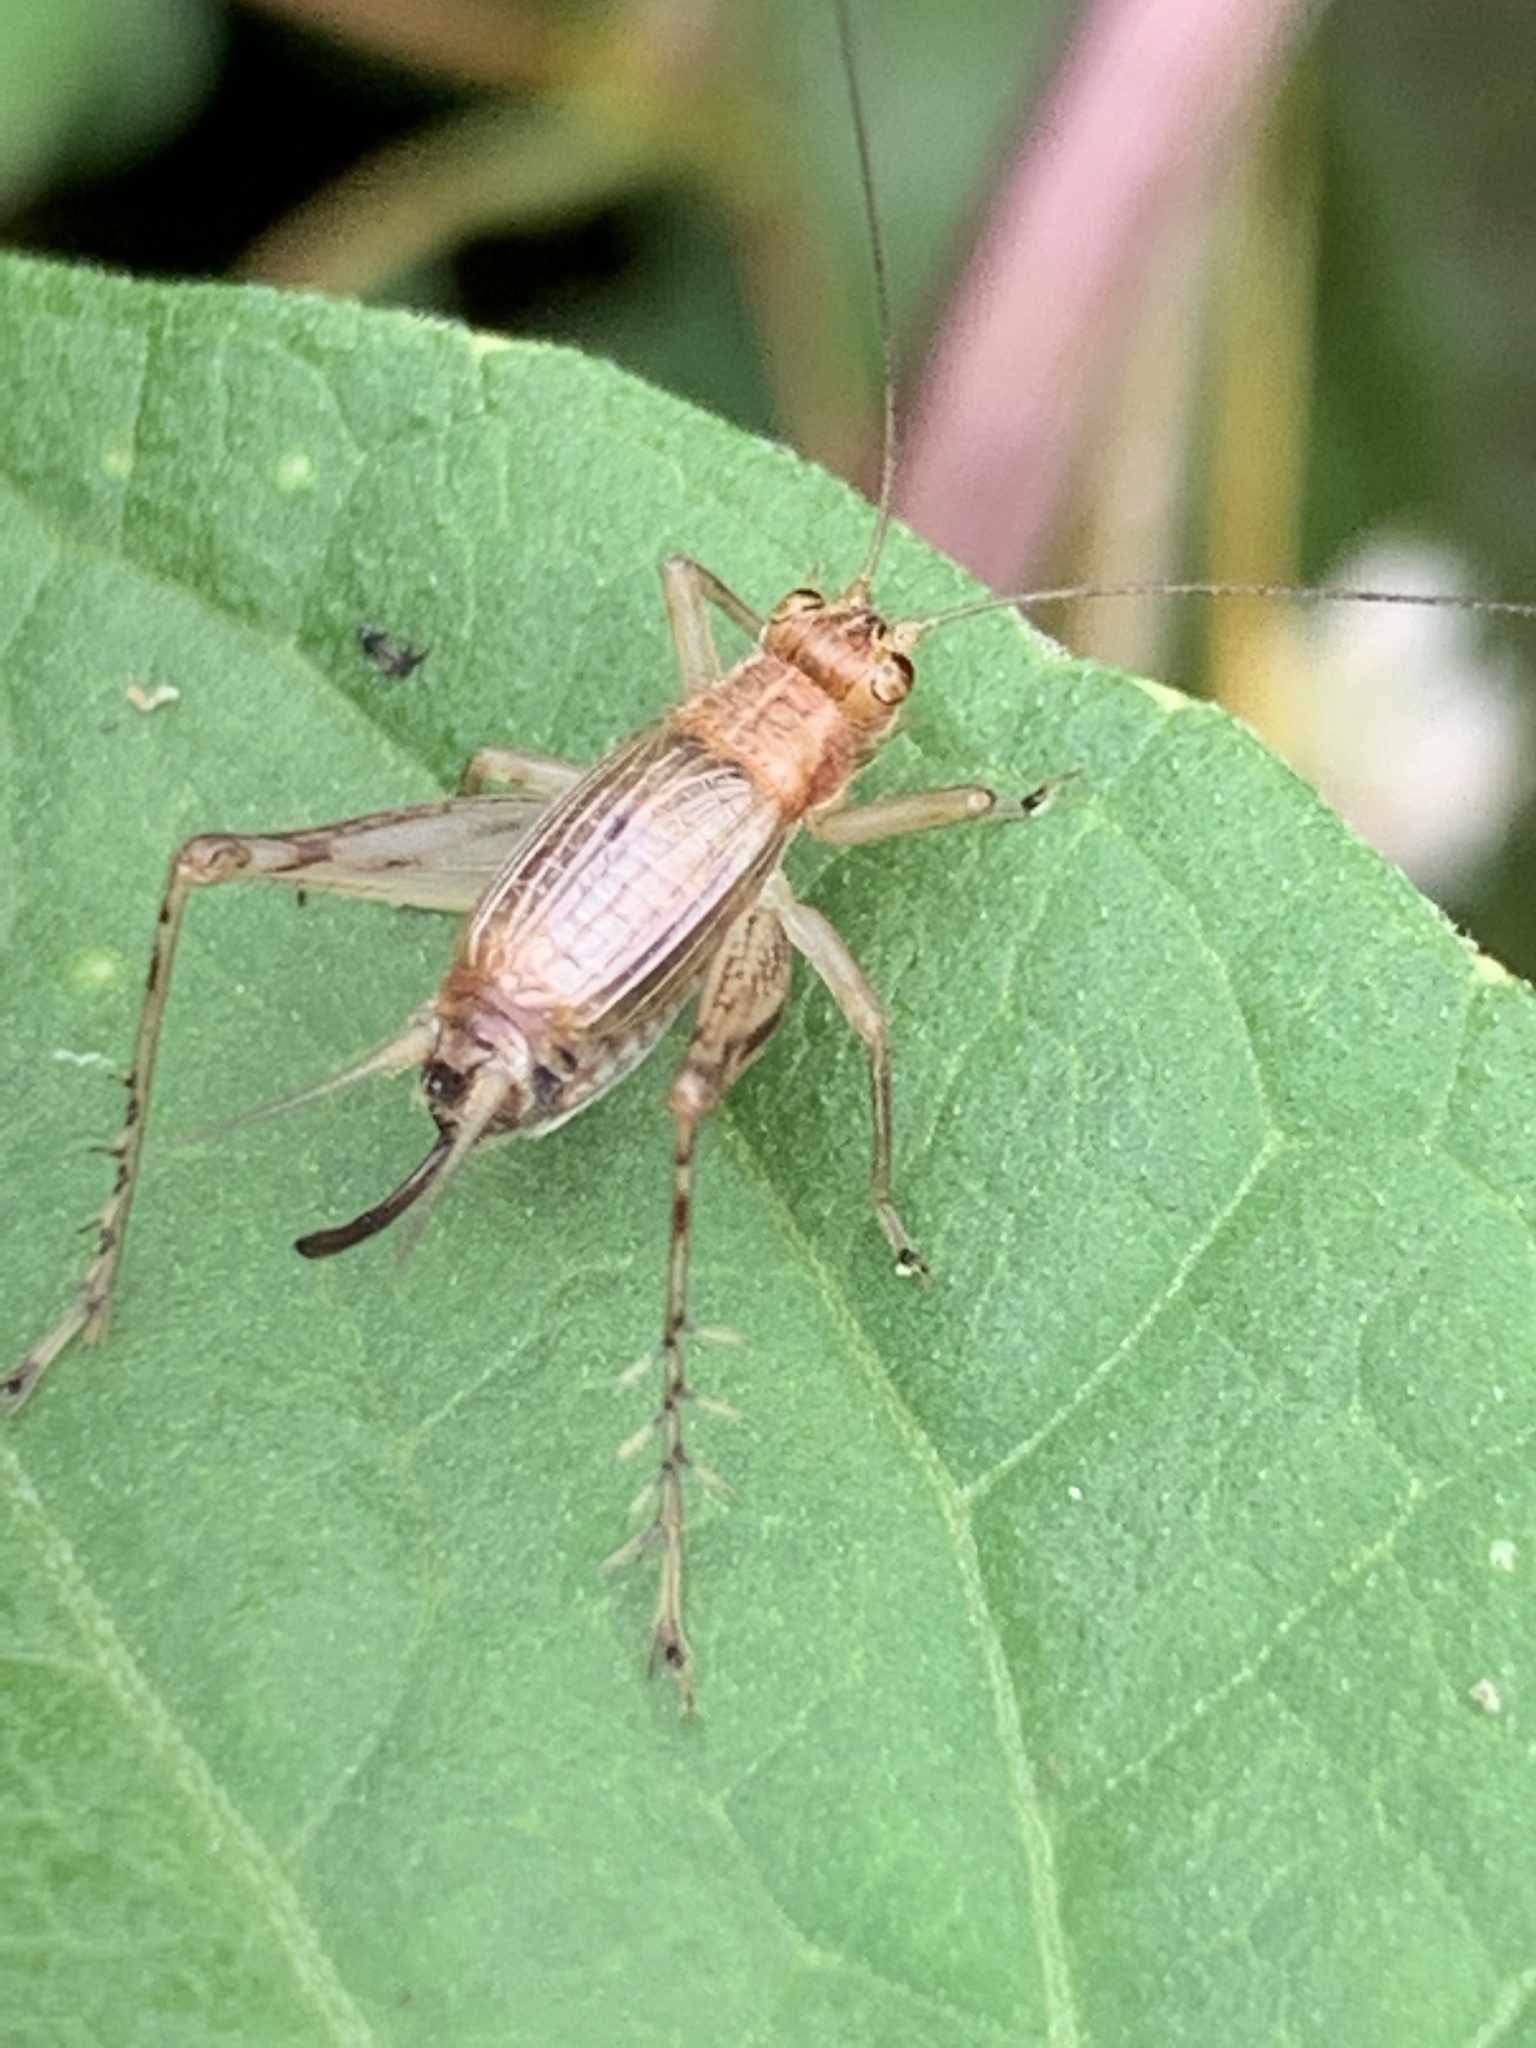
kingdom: Animalia
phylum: Arthropoda
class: Insecta
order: Orthoptera
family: Trigonidiidae
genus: Anaxipha
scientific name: Anaxipha exigua
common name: Say's bush cricket
